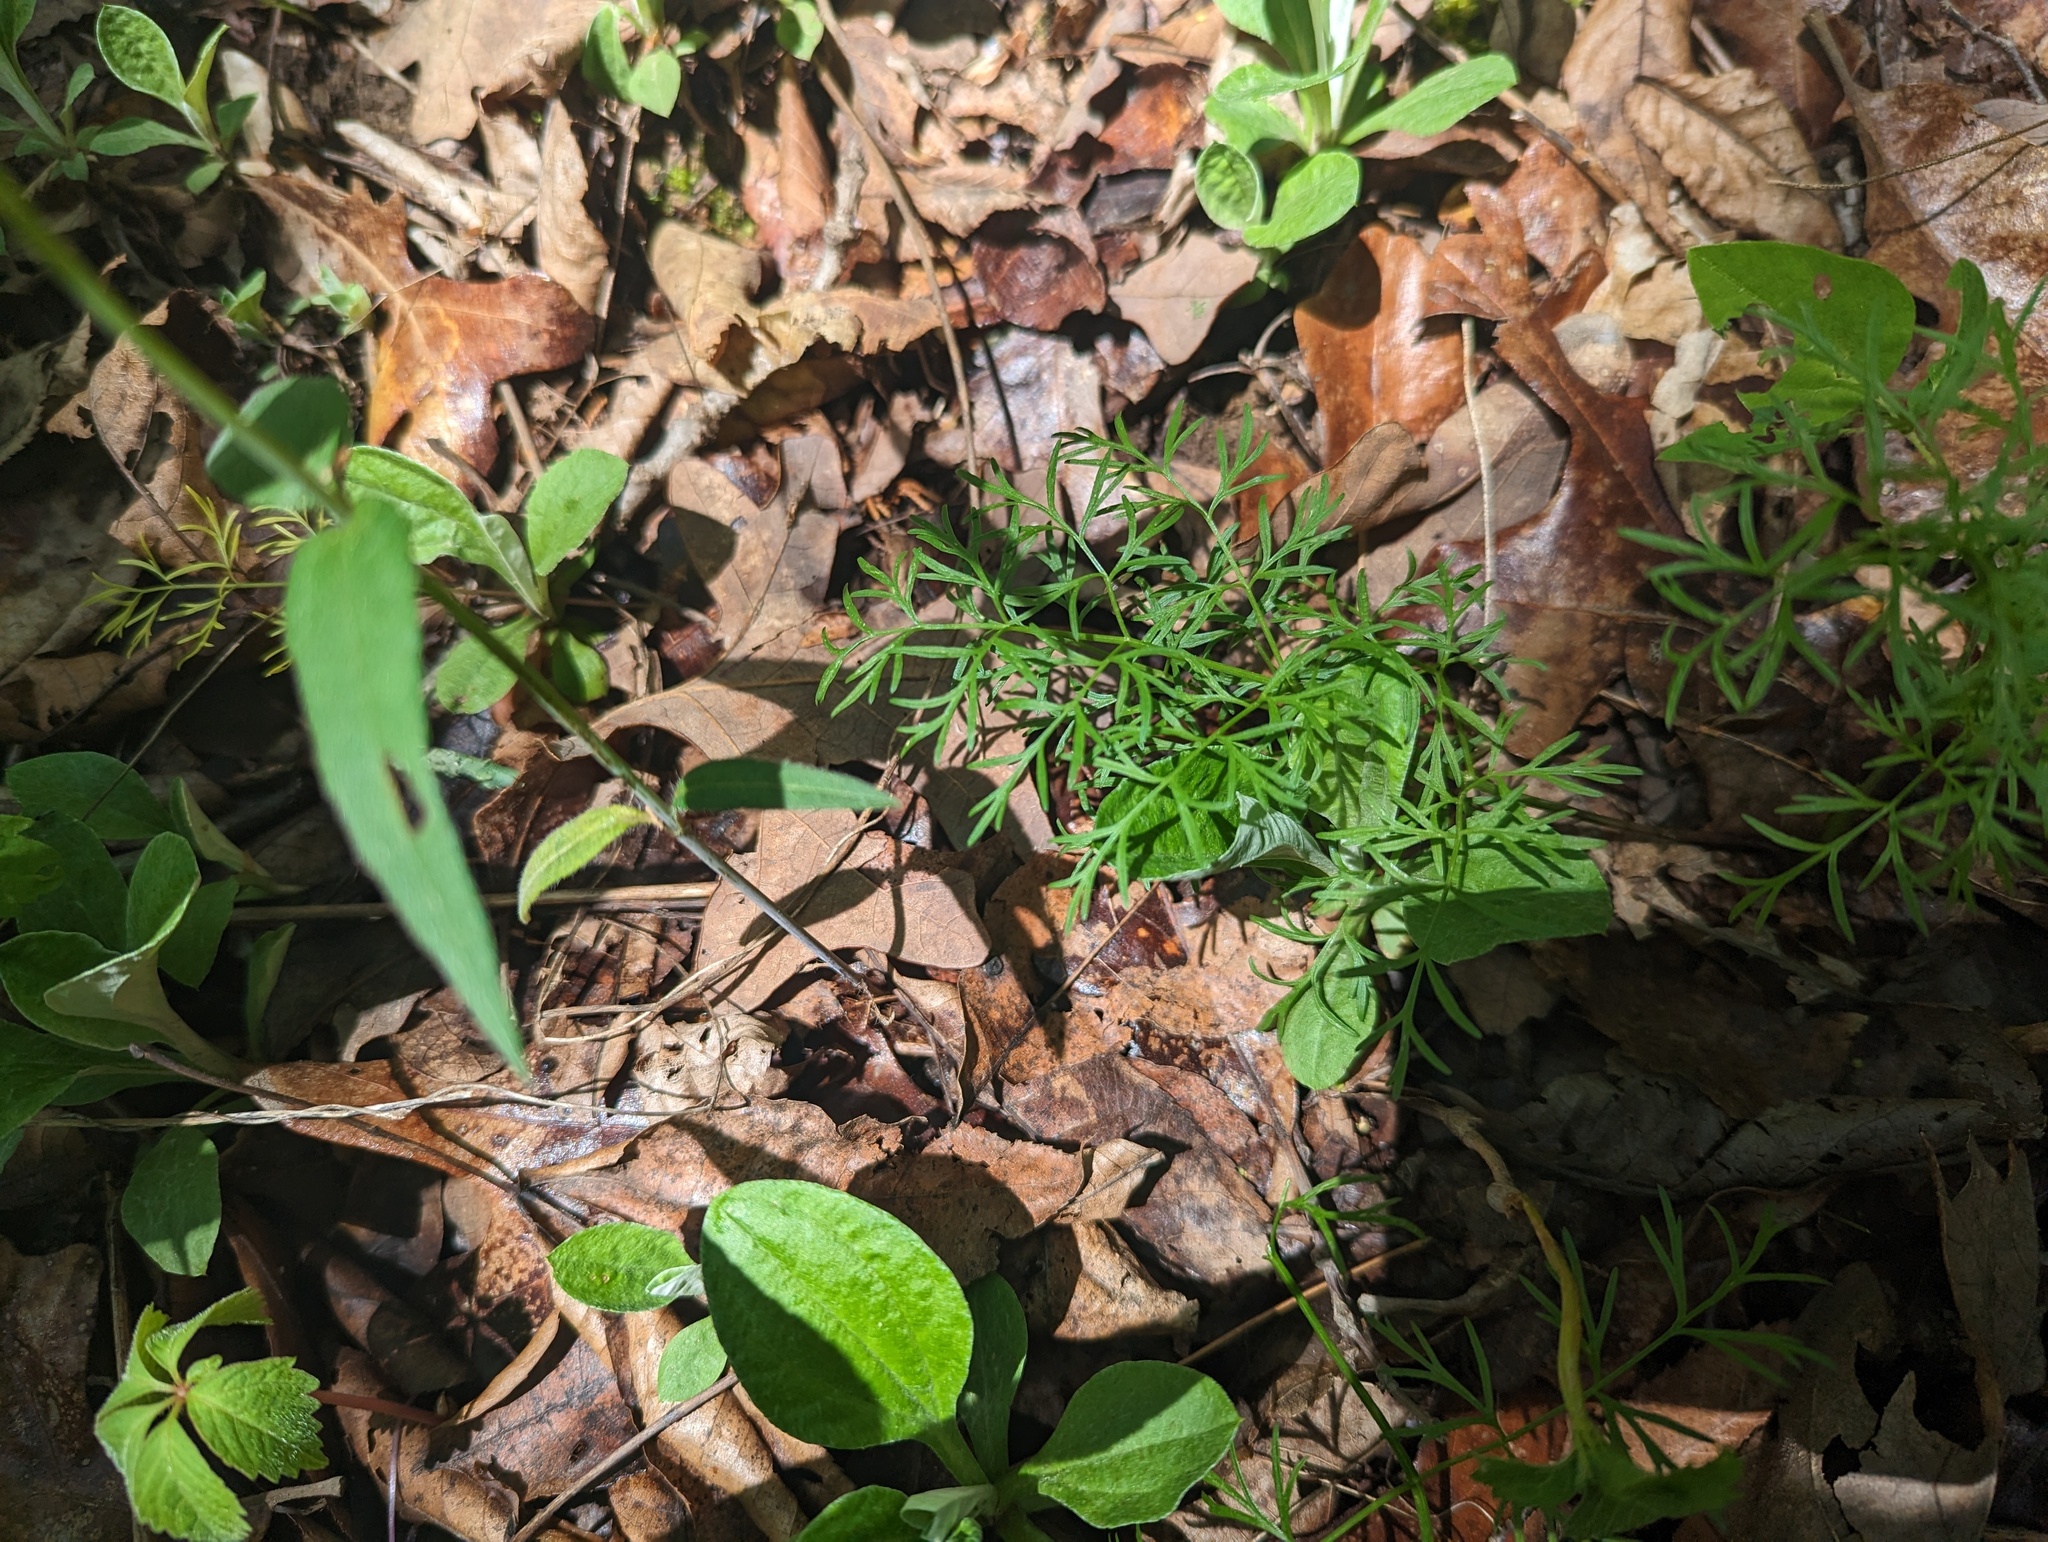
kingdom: Plantae
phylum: Tracheophyta
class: Magnoliopsida
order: Apiales
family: Apiaceae
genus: Perideridia
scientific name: Perideridia americana
